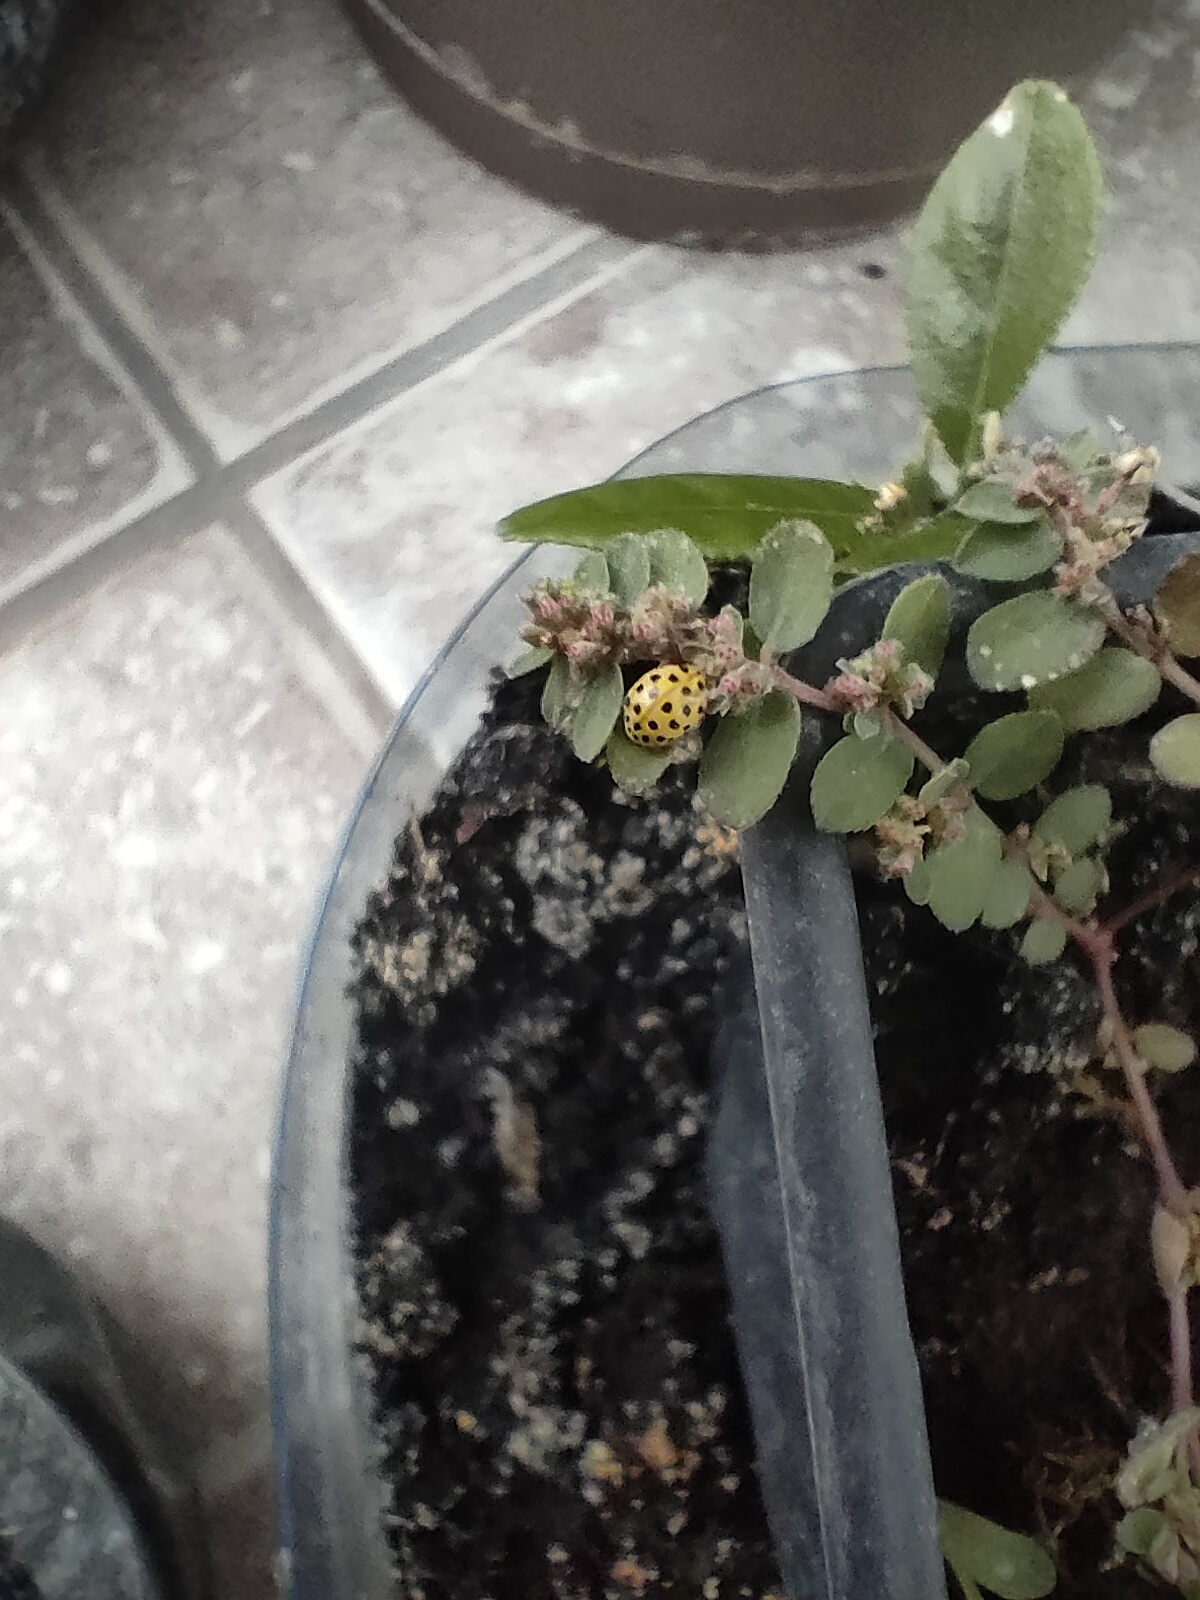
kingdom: Animalia
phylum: Arthropoda
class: Insecta
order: Coleoptera
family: Coccinellidae
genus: Psyllobora
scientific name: Psyllobora vigintiduopunctata
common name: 22-spot ladybird
